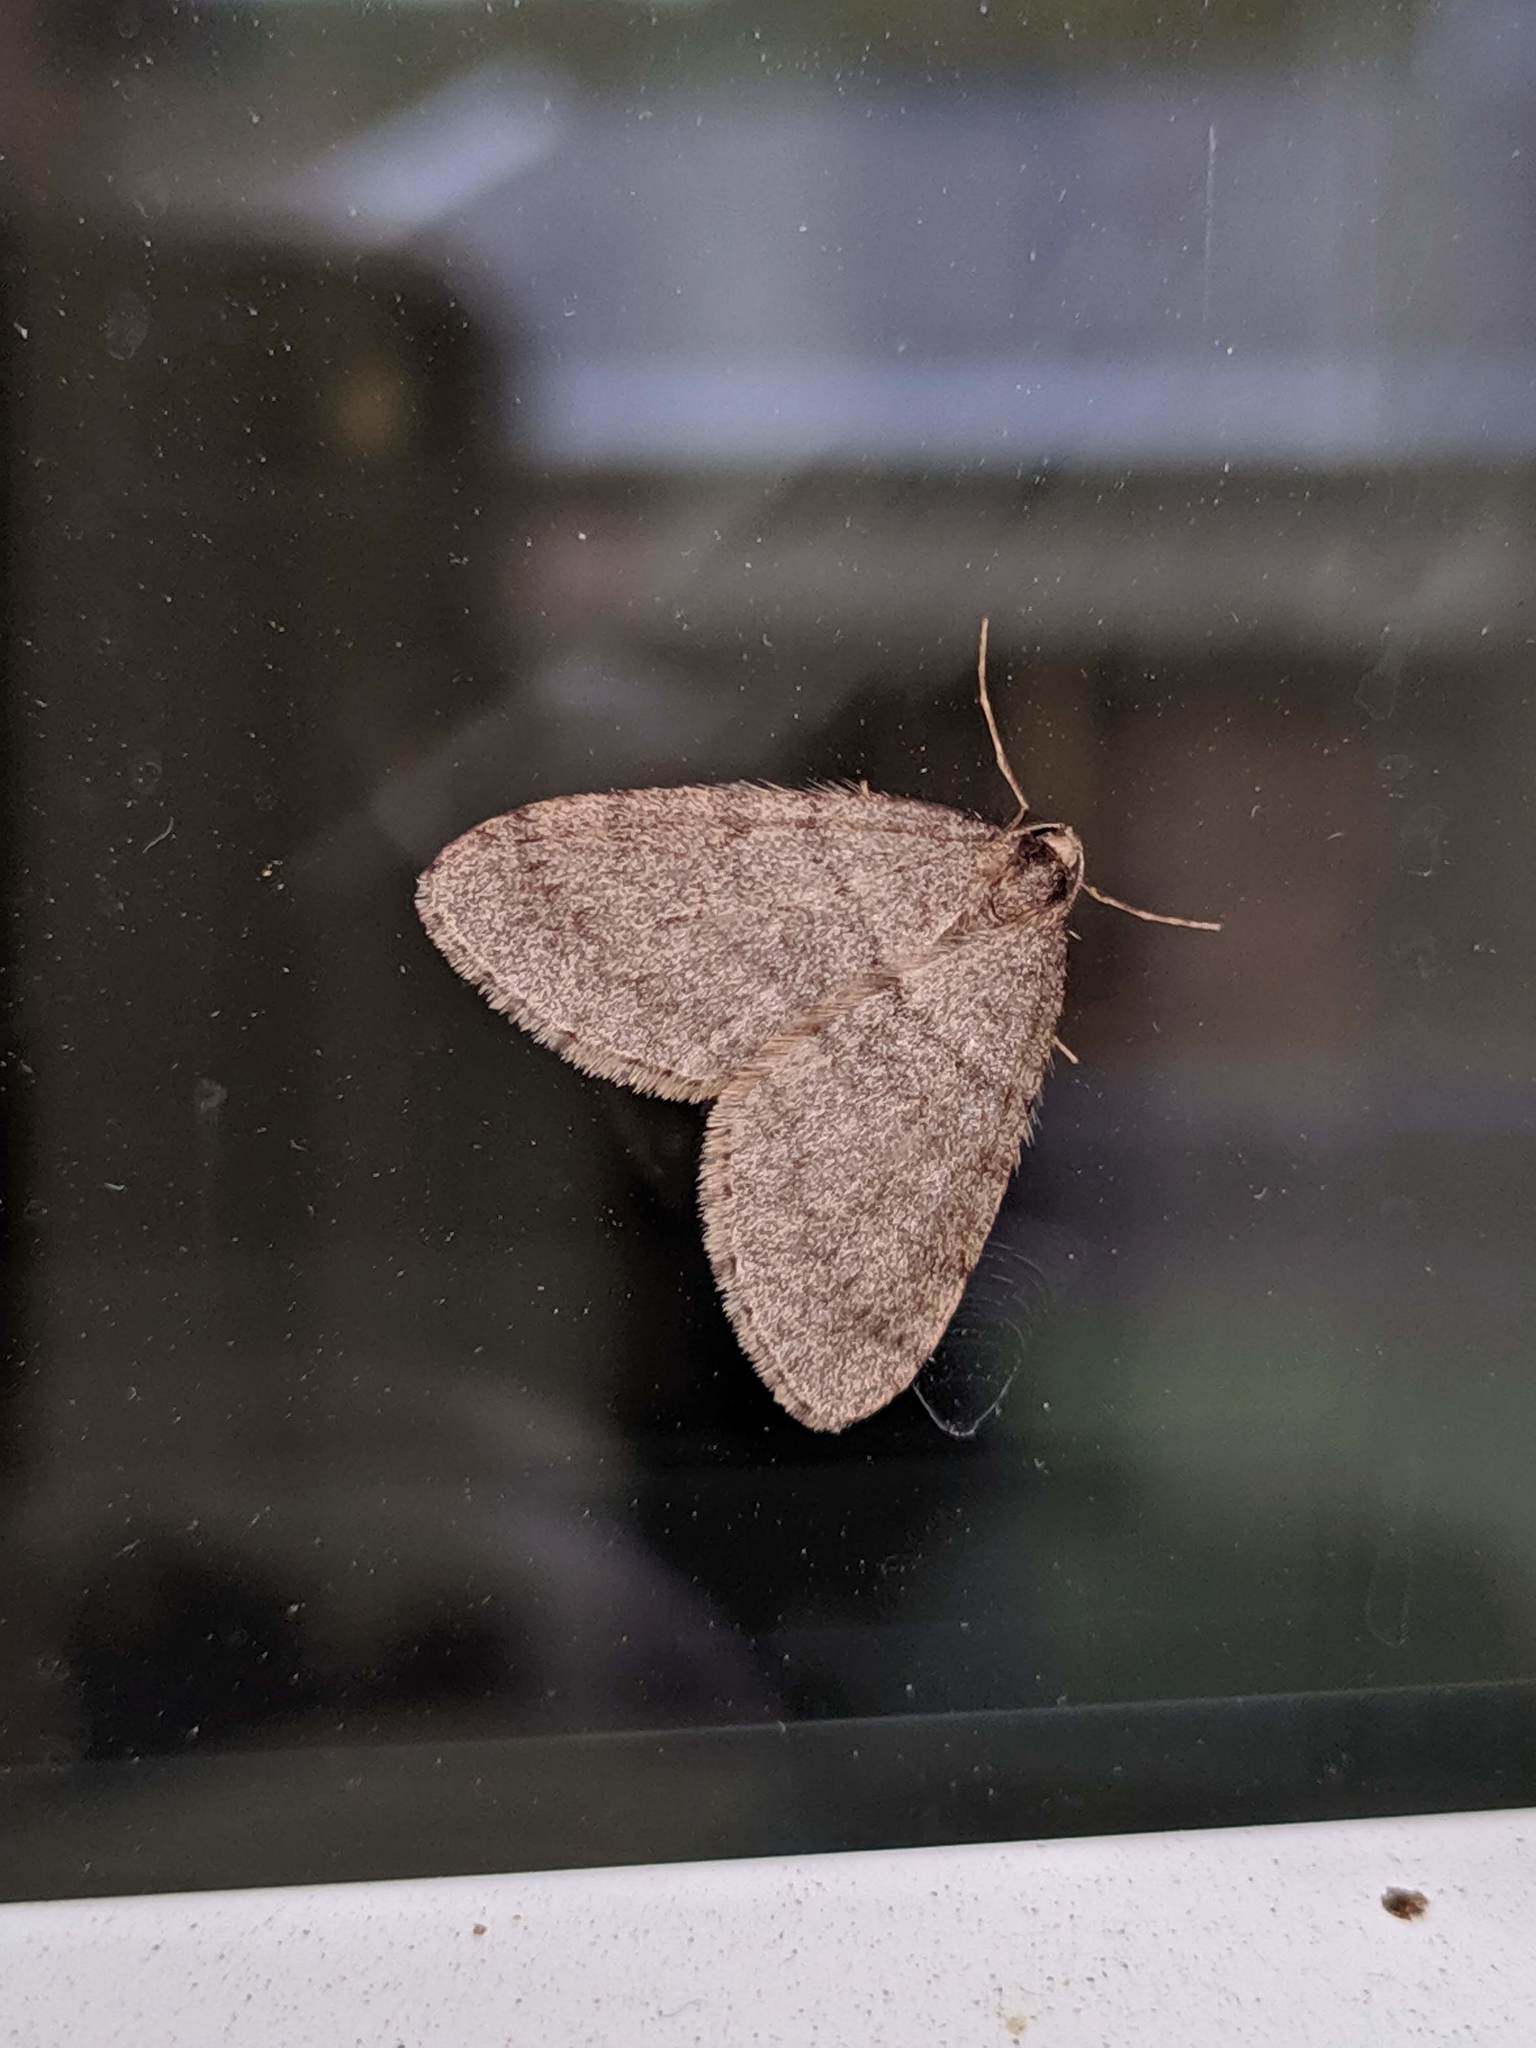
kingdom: Animalia
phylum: Arthropoda
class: Insecta
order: Lepidoptera
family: Geometridae
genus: Operophtera
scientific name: Operophtera brumata
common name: Winter moth
